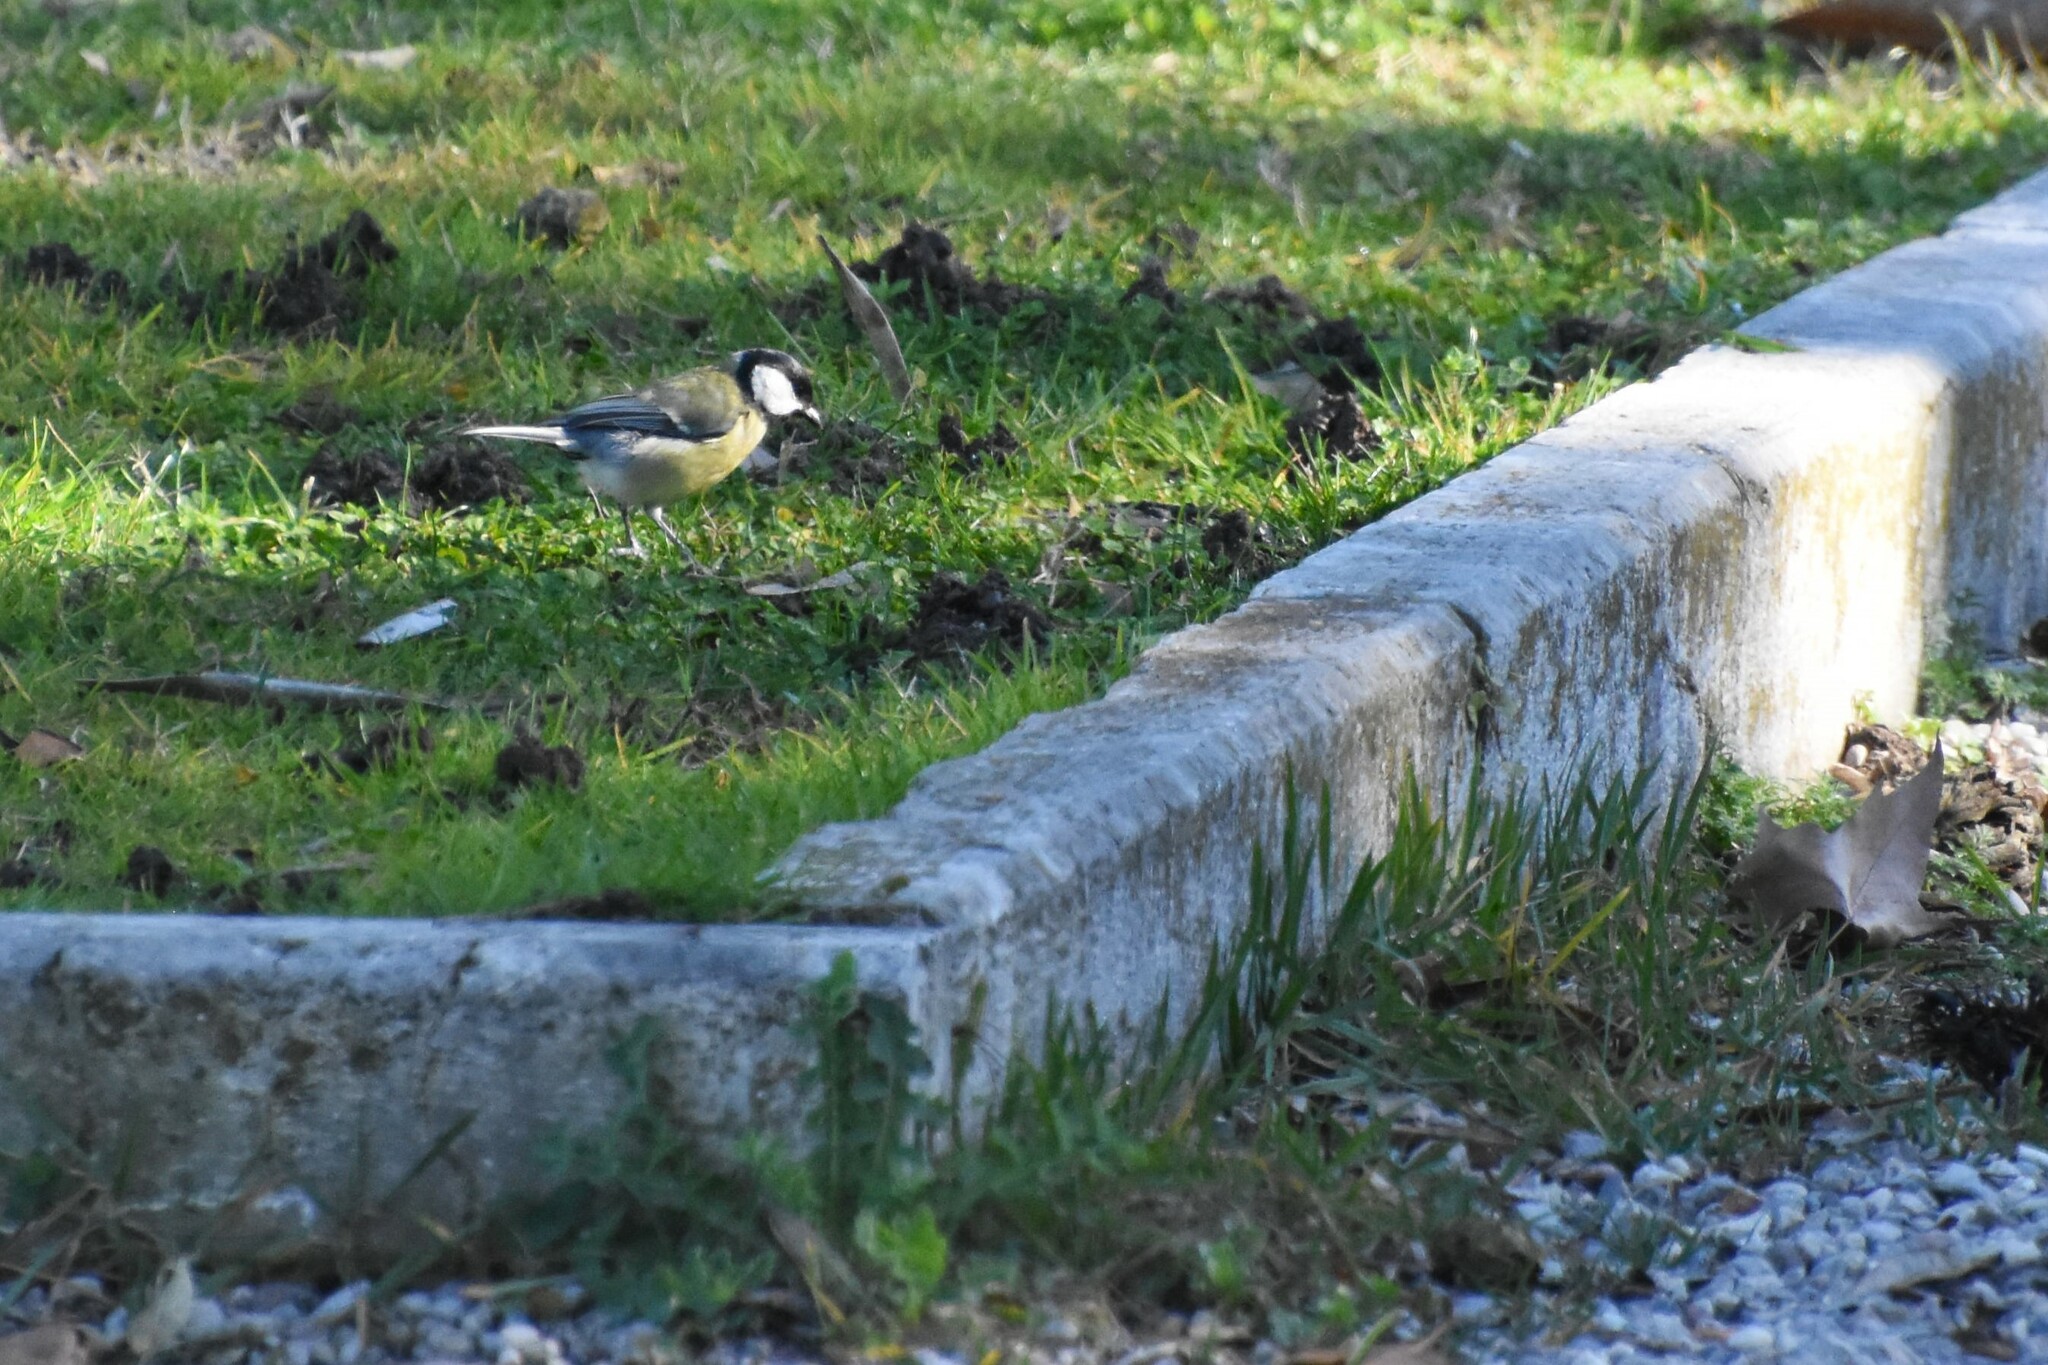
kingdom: Animalia
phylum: Chordata
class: Aves
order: Passeriformes
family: Paridae
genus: Parus
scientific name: Parus major
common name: Great tit
